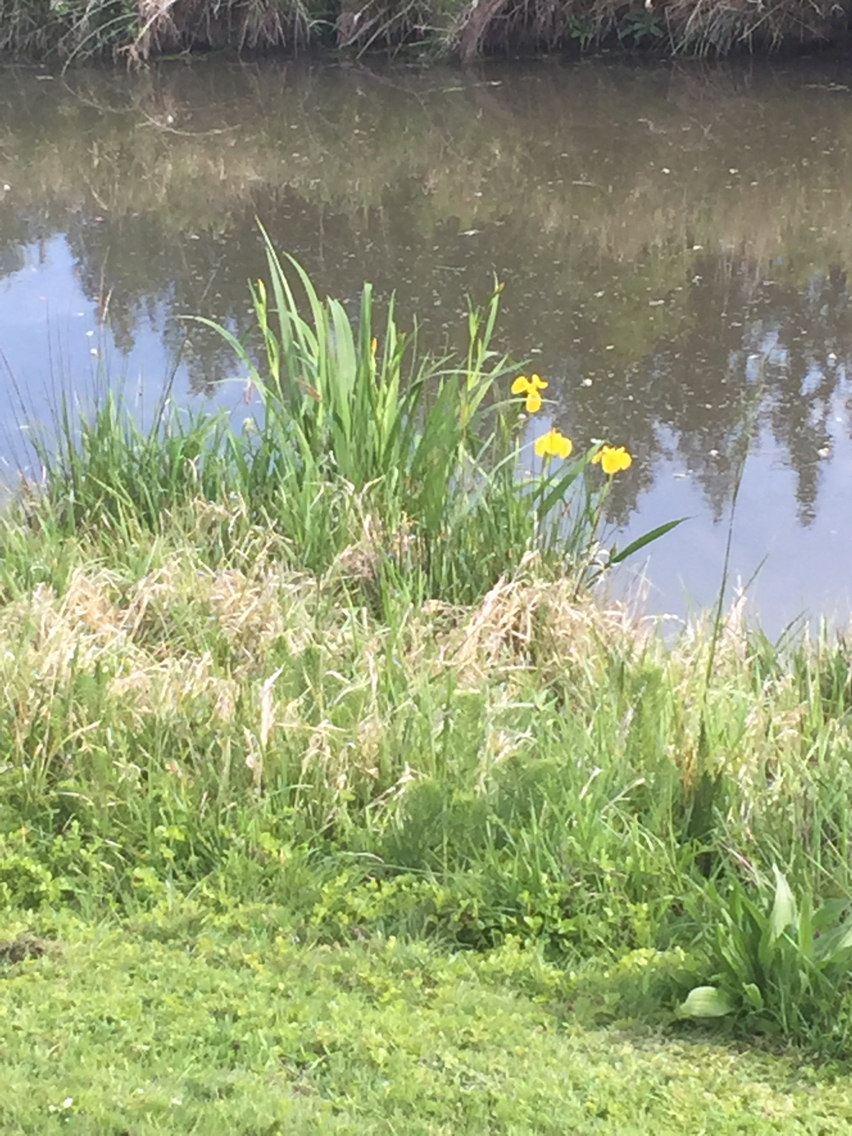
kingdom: Plantae
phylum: Tracheophyta
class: Liliopsida
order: Asparagales
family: Iridaceae
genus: Iris
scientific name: Iris pseudacorus
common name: Yellow flag
